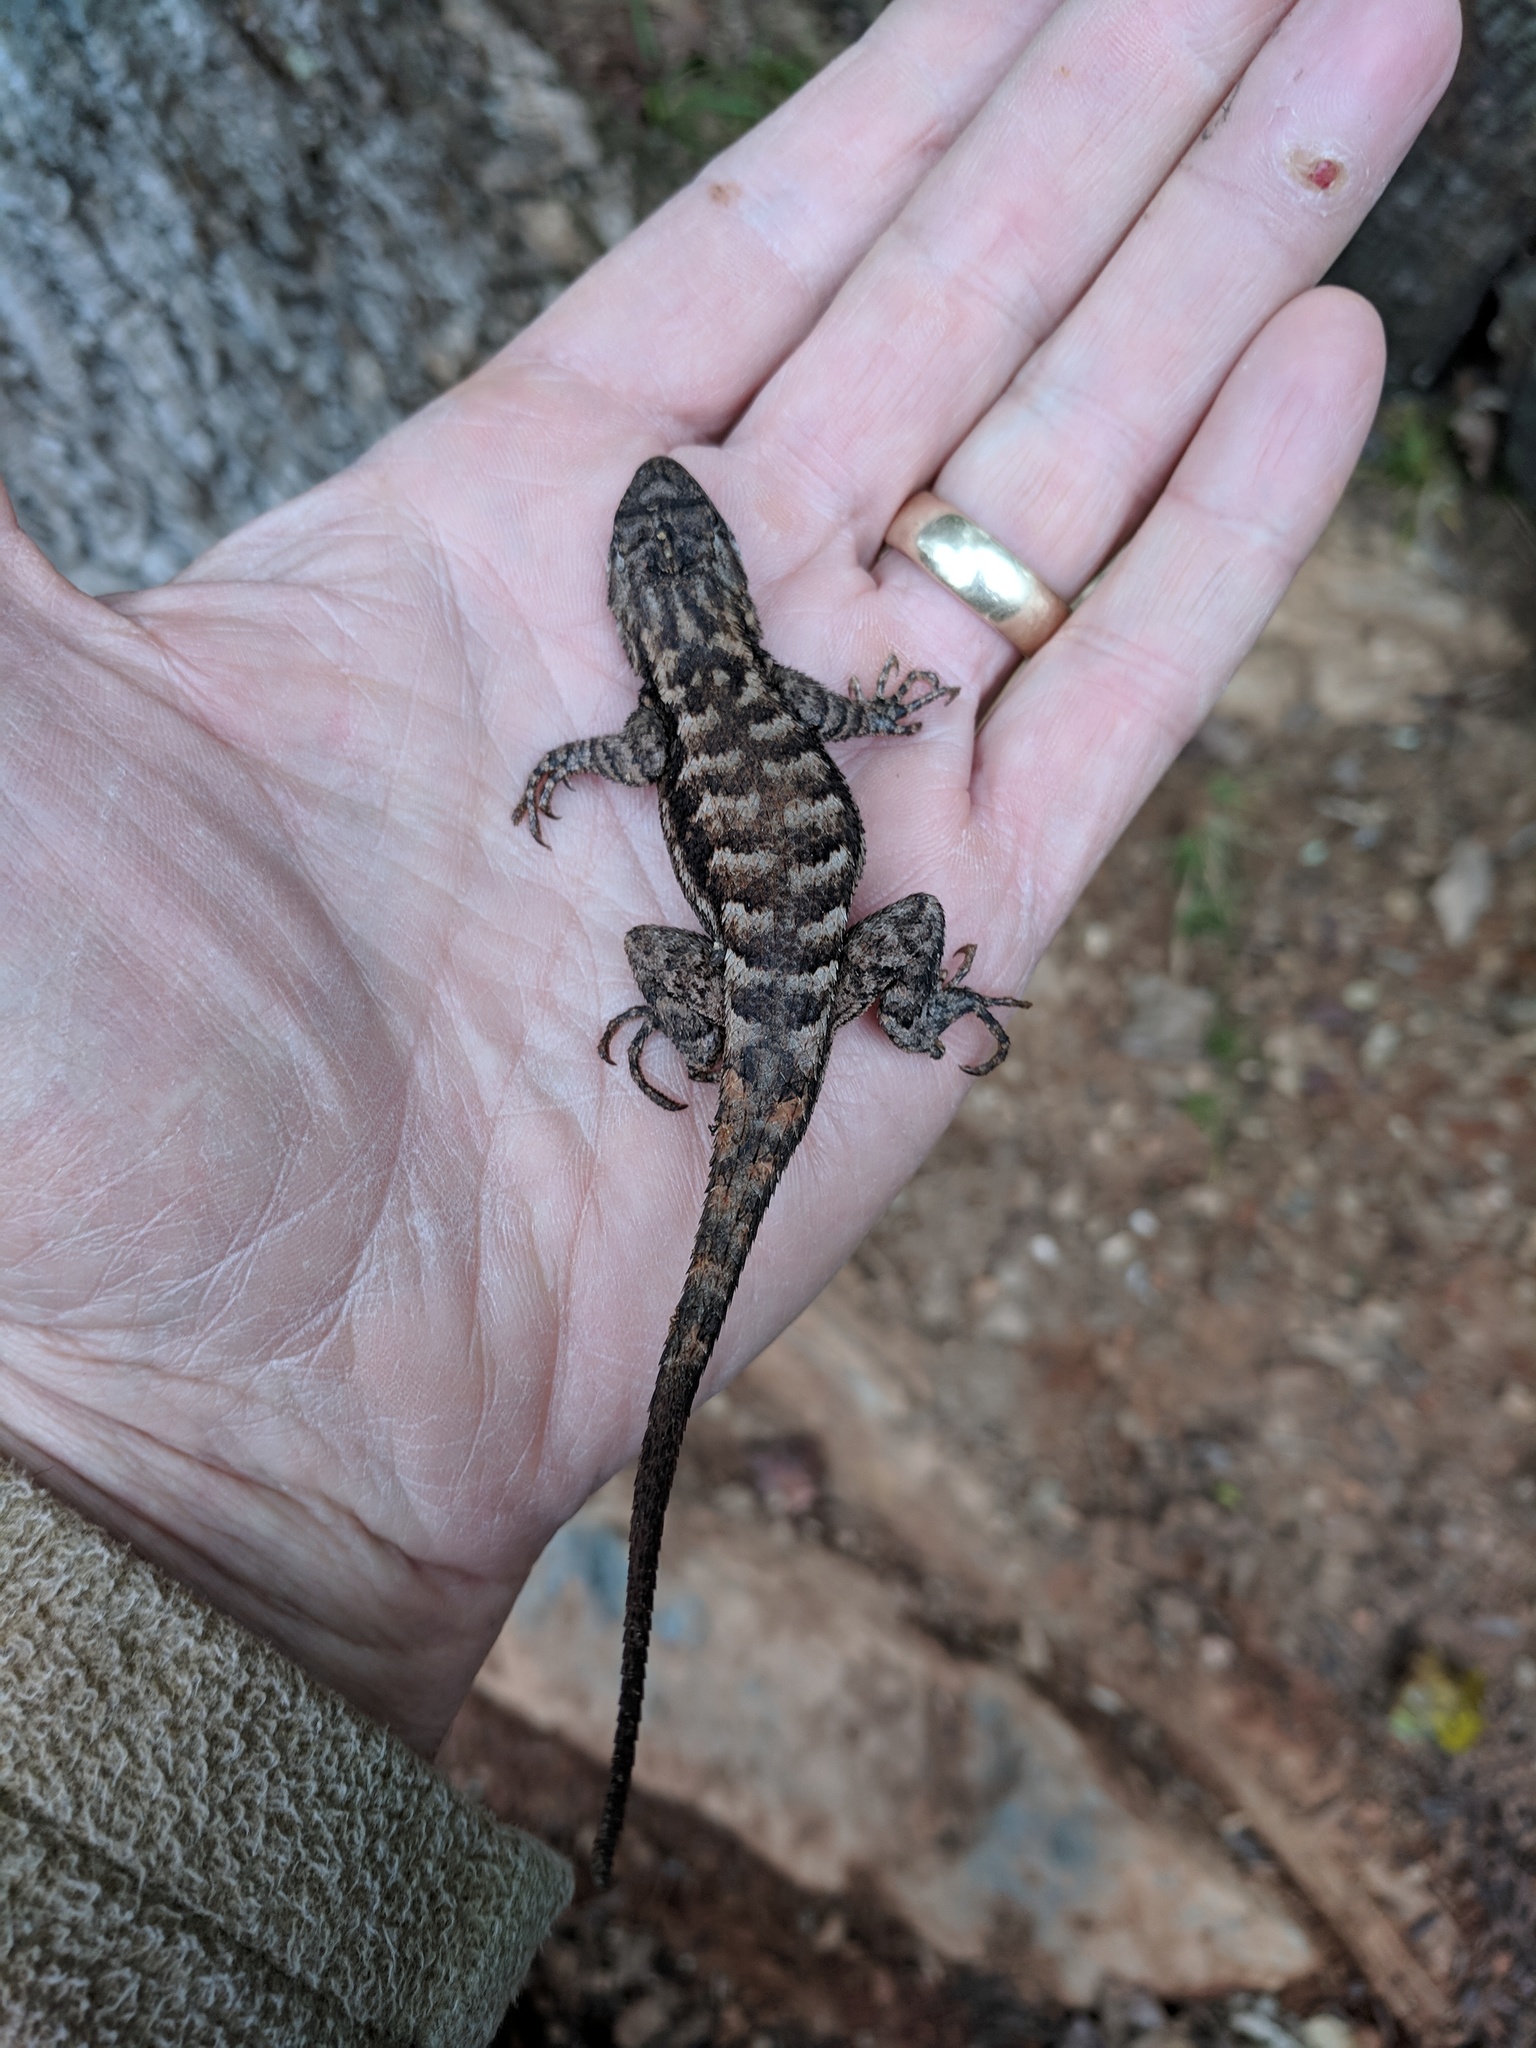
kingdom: Animalia
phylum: Chordata
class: Squamata
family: Phrynosomatidae
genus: Sceloporus
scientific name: Sceloporus undulatus
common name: Eastern fence lizard
